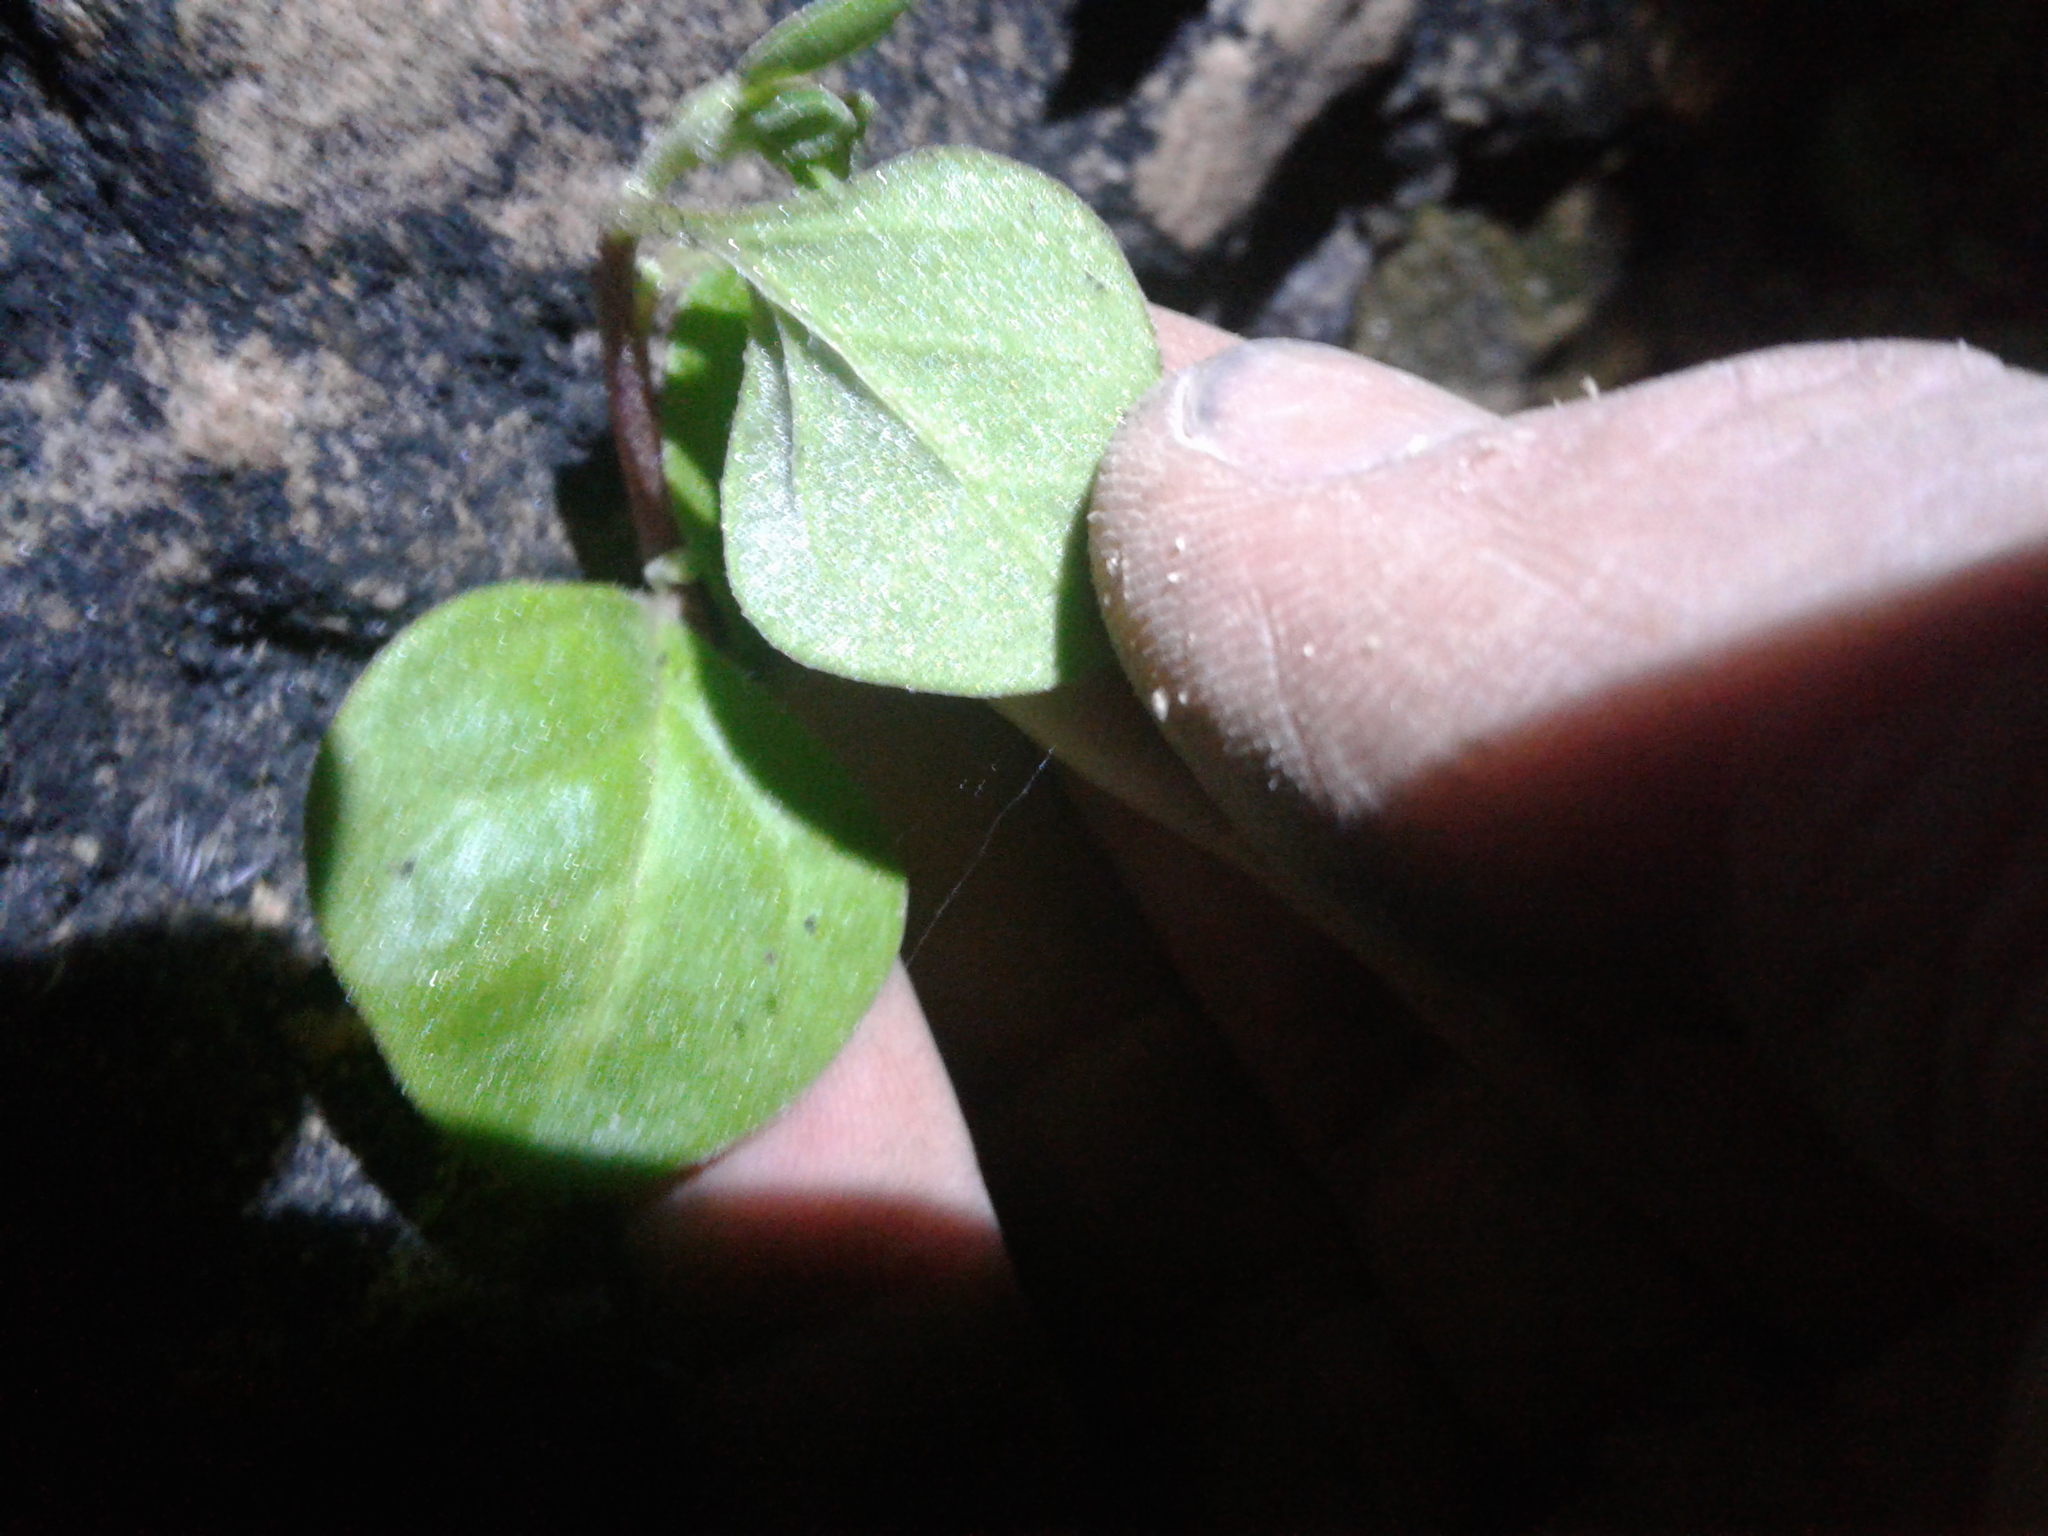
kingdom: Plantae
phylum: Tracheophyta
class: Magnoliopsida
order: Caryophyllales
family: Aizoaceae
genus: Tetragonia
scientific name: Tetragonia implexicoma
